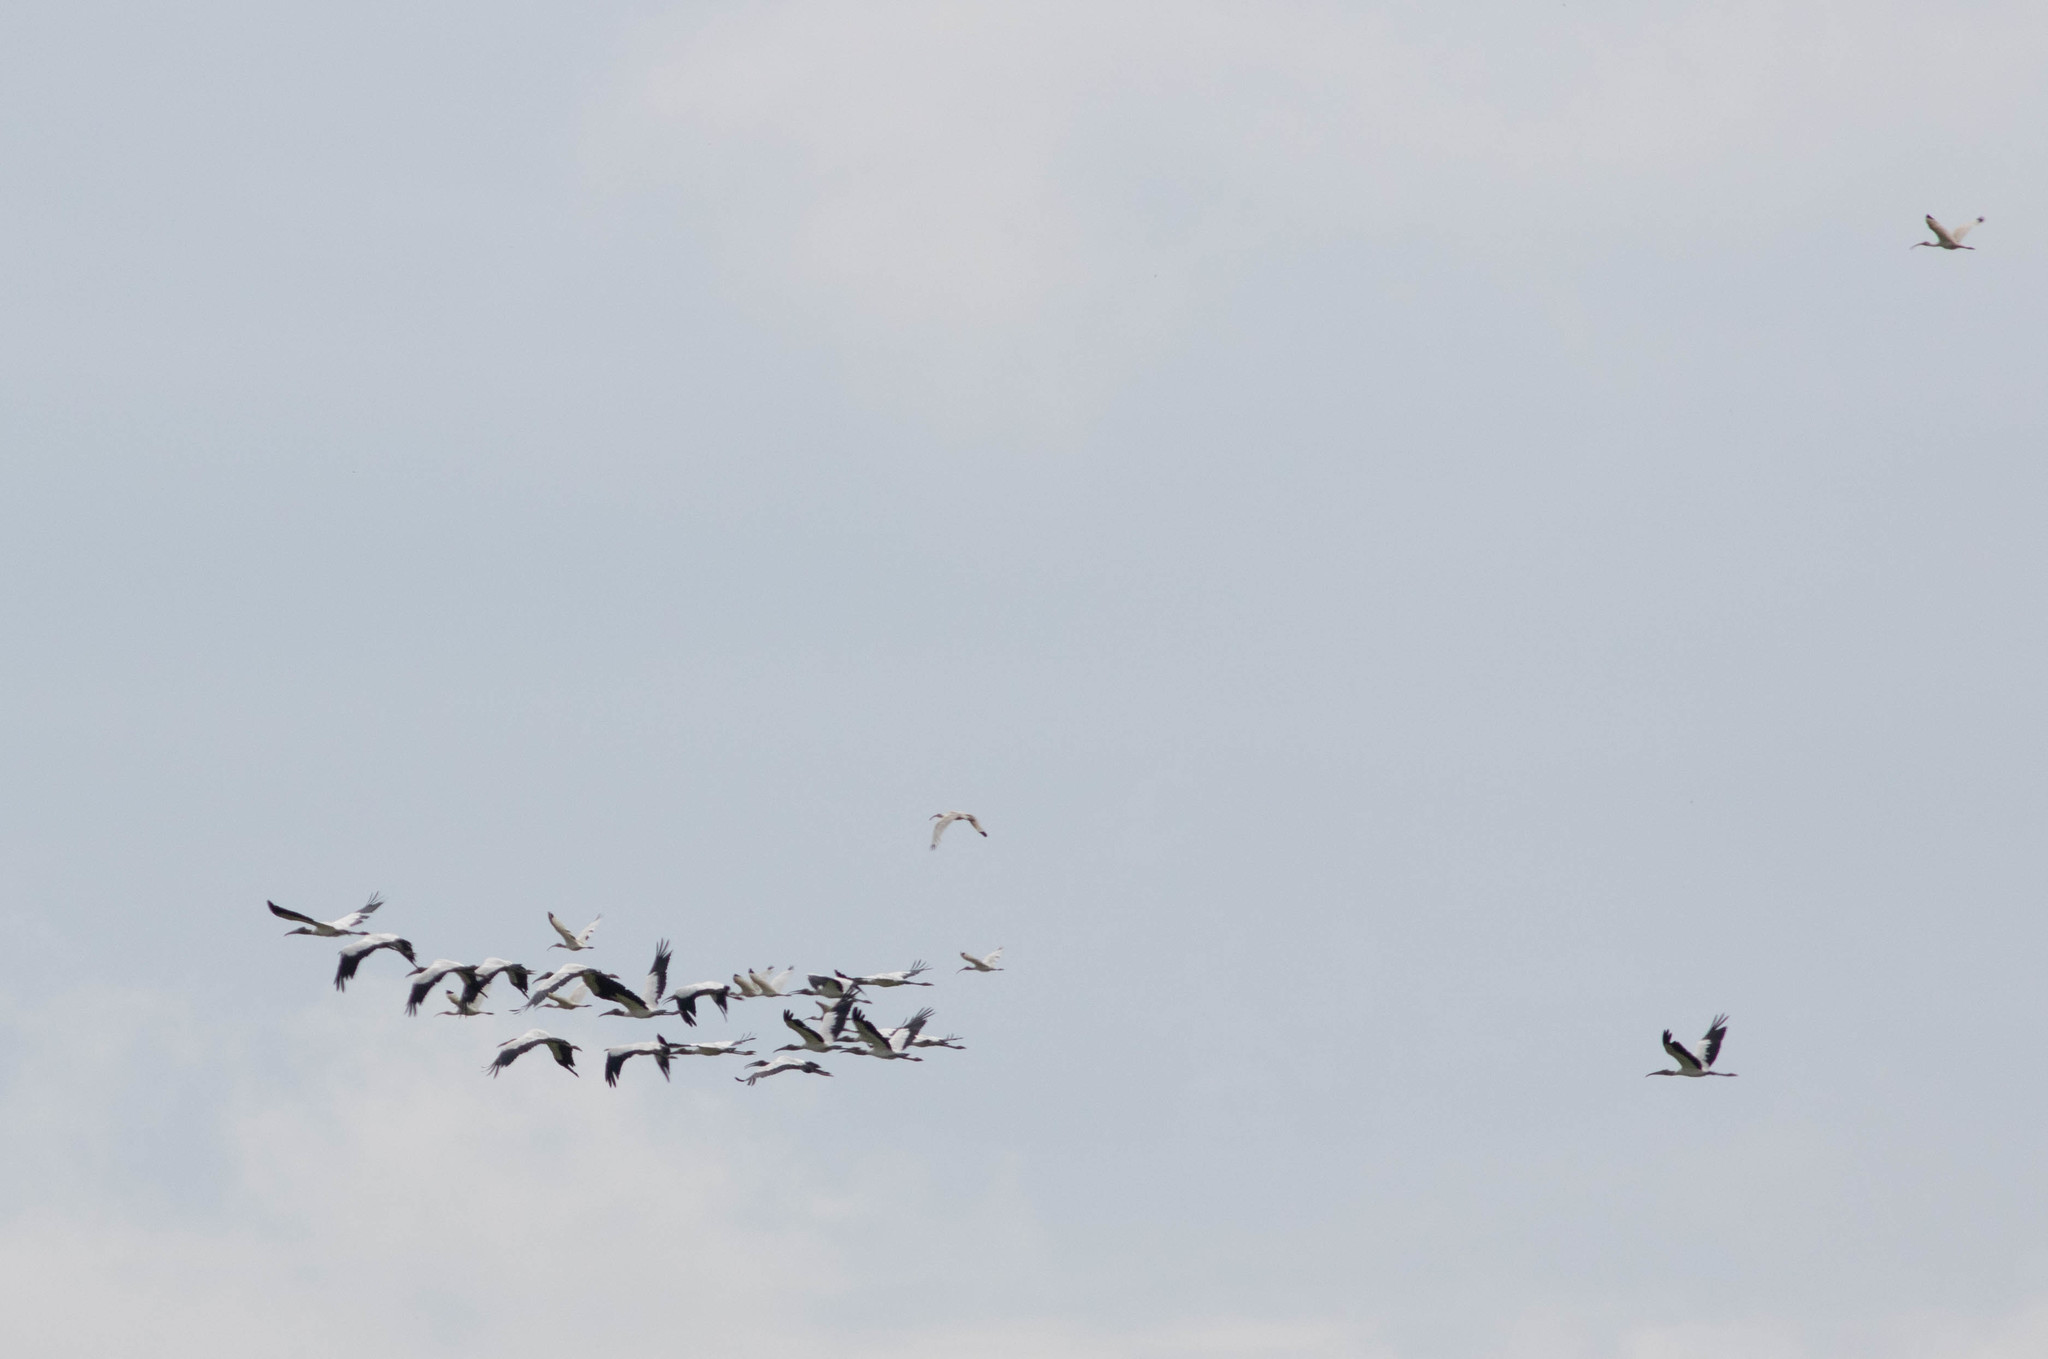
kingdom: Animalia
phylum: Chordata
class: Aves
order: Ciconiiformes
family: Ciconiidae
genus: Mycteria
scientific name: Mycteria americana
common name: Wood stork
